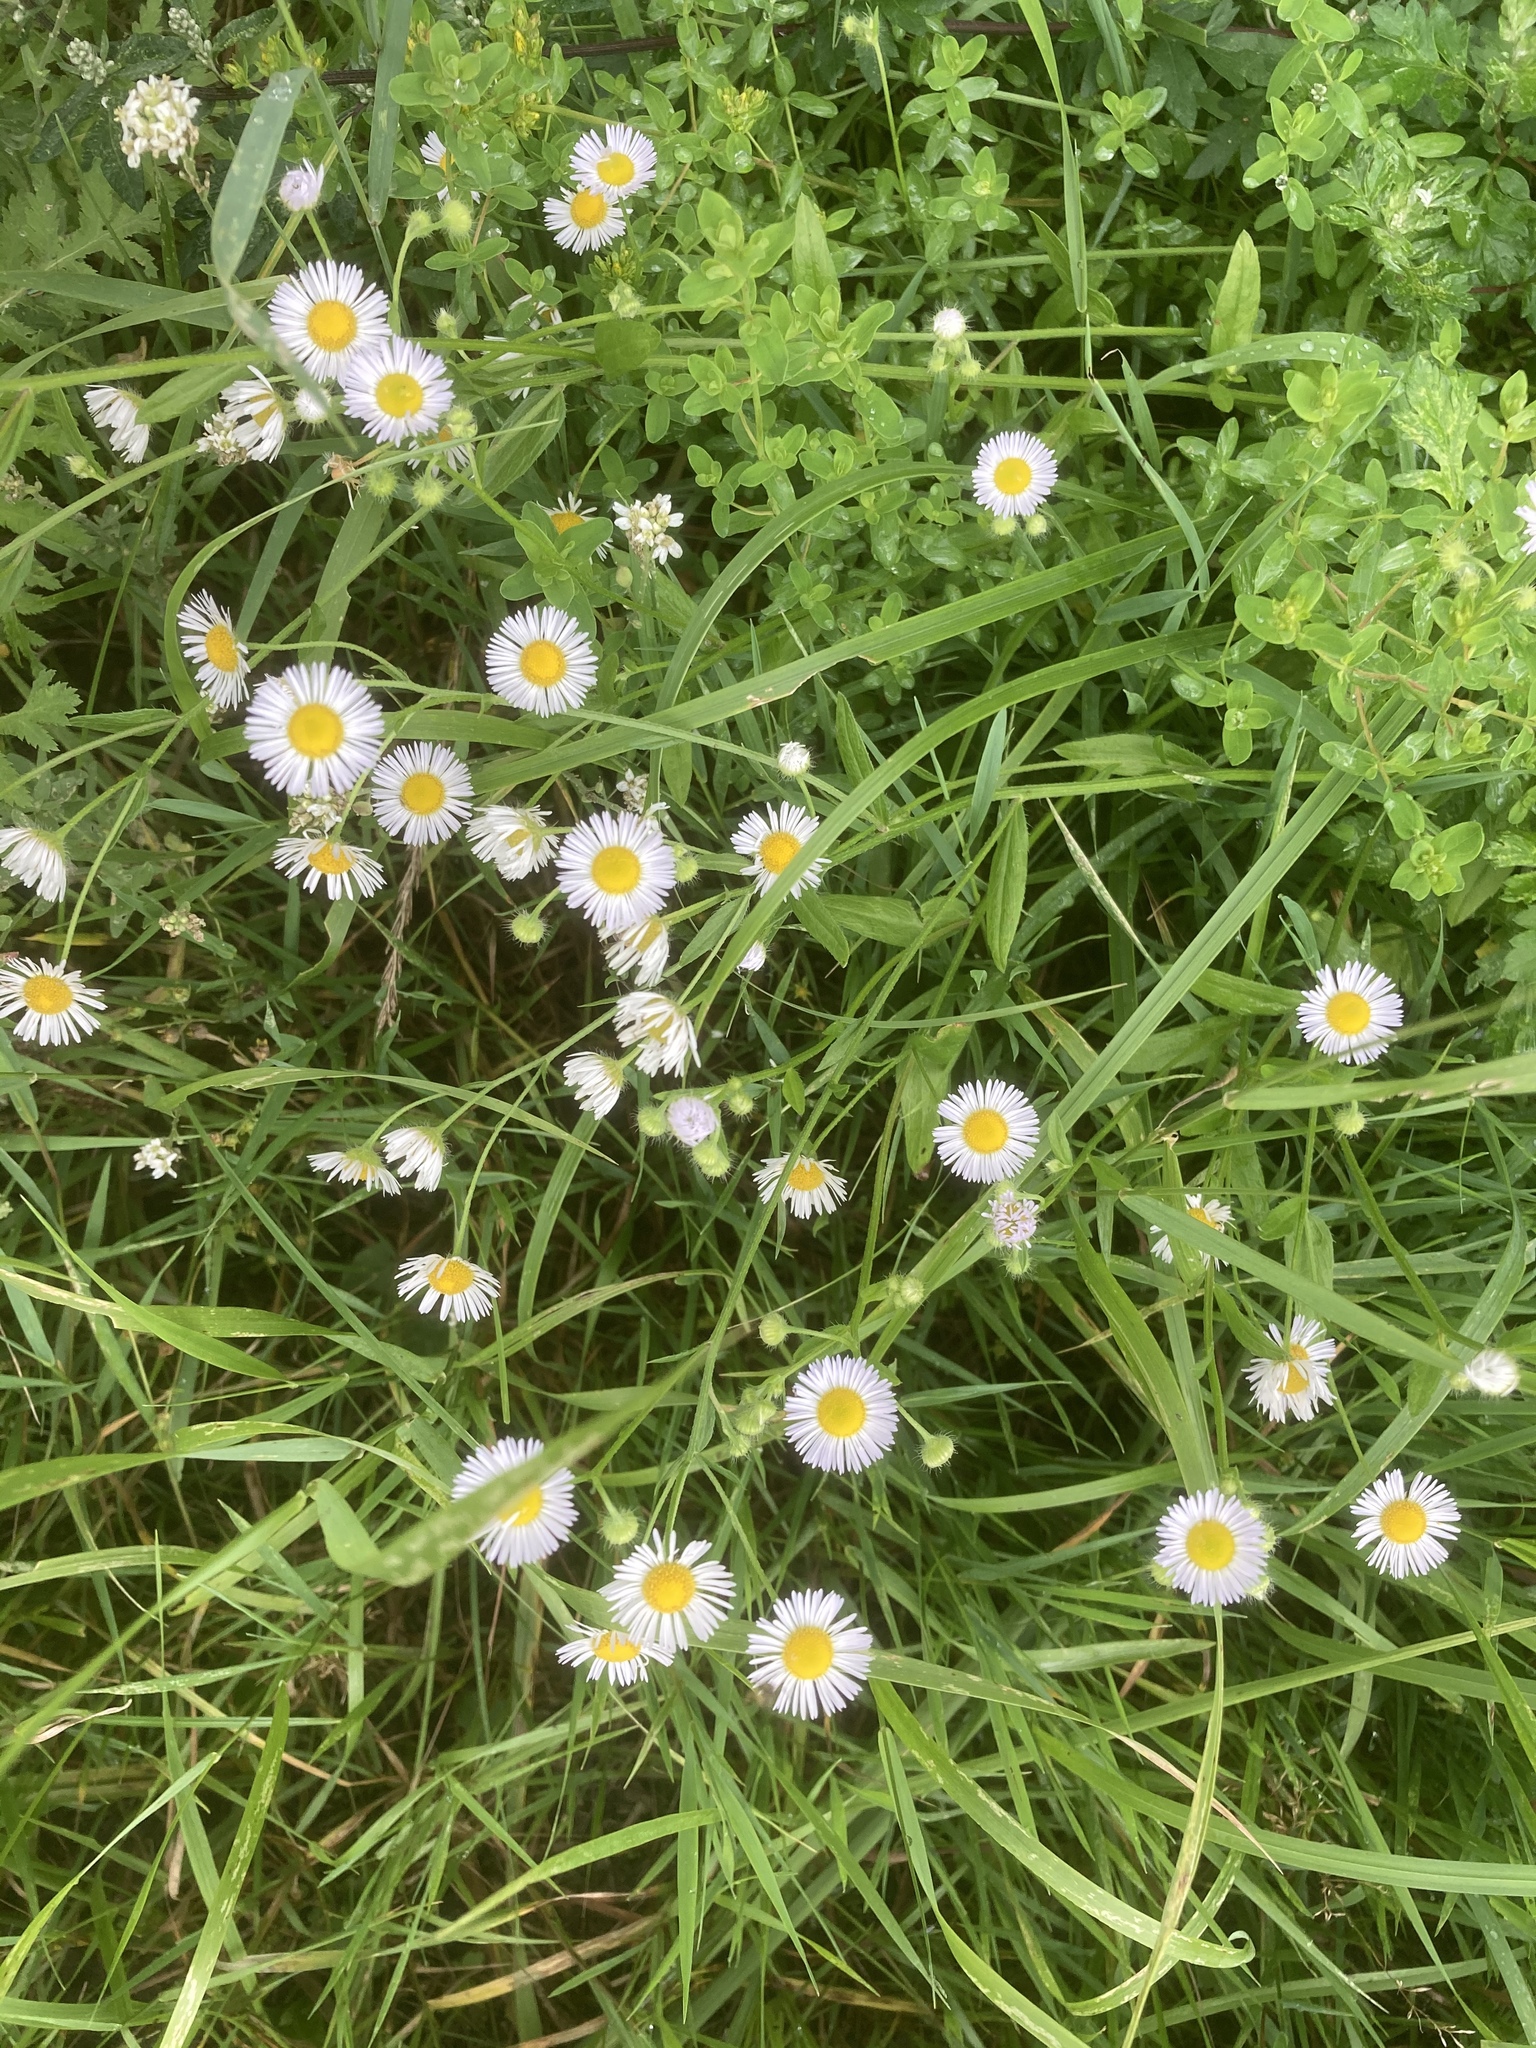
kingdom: Plantae
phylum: Tracheophyta
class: Magnoliopsida
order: Asterales
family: Asteraceae
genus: Erigeron
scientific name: Erigeron annuus
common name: Tall fleabane
